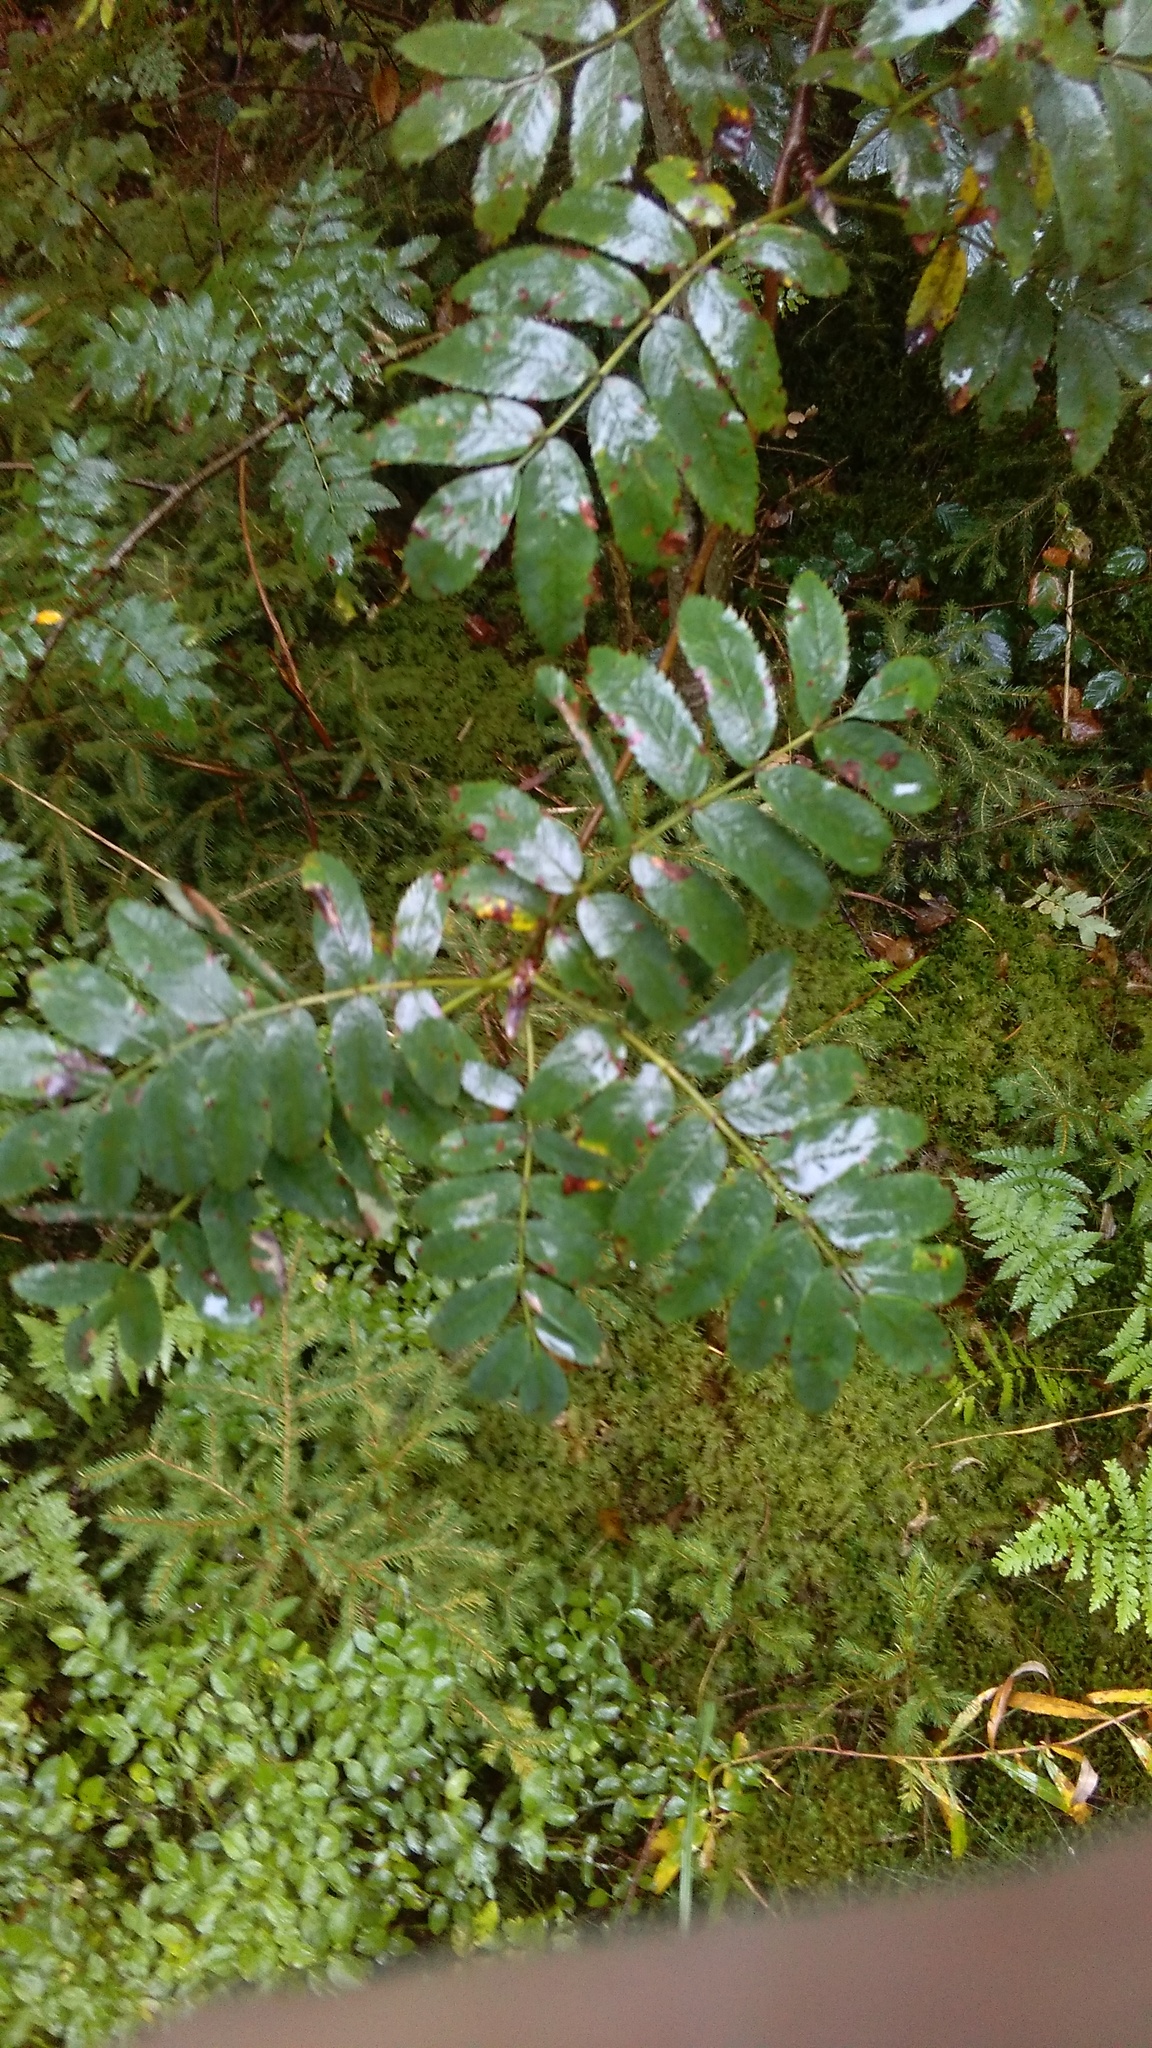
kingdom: Plantae
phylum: Tracheophyta
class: Magnoliopsida
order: Rosales
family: Rosaceae
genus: Sorbus
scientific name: Sorbus aucuparia
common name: Rowan
